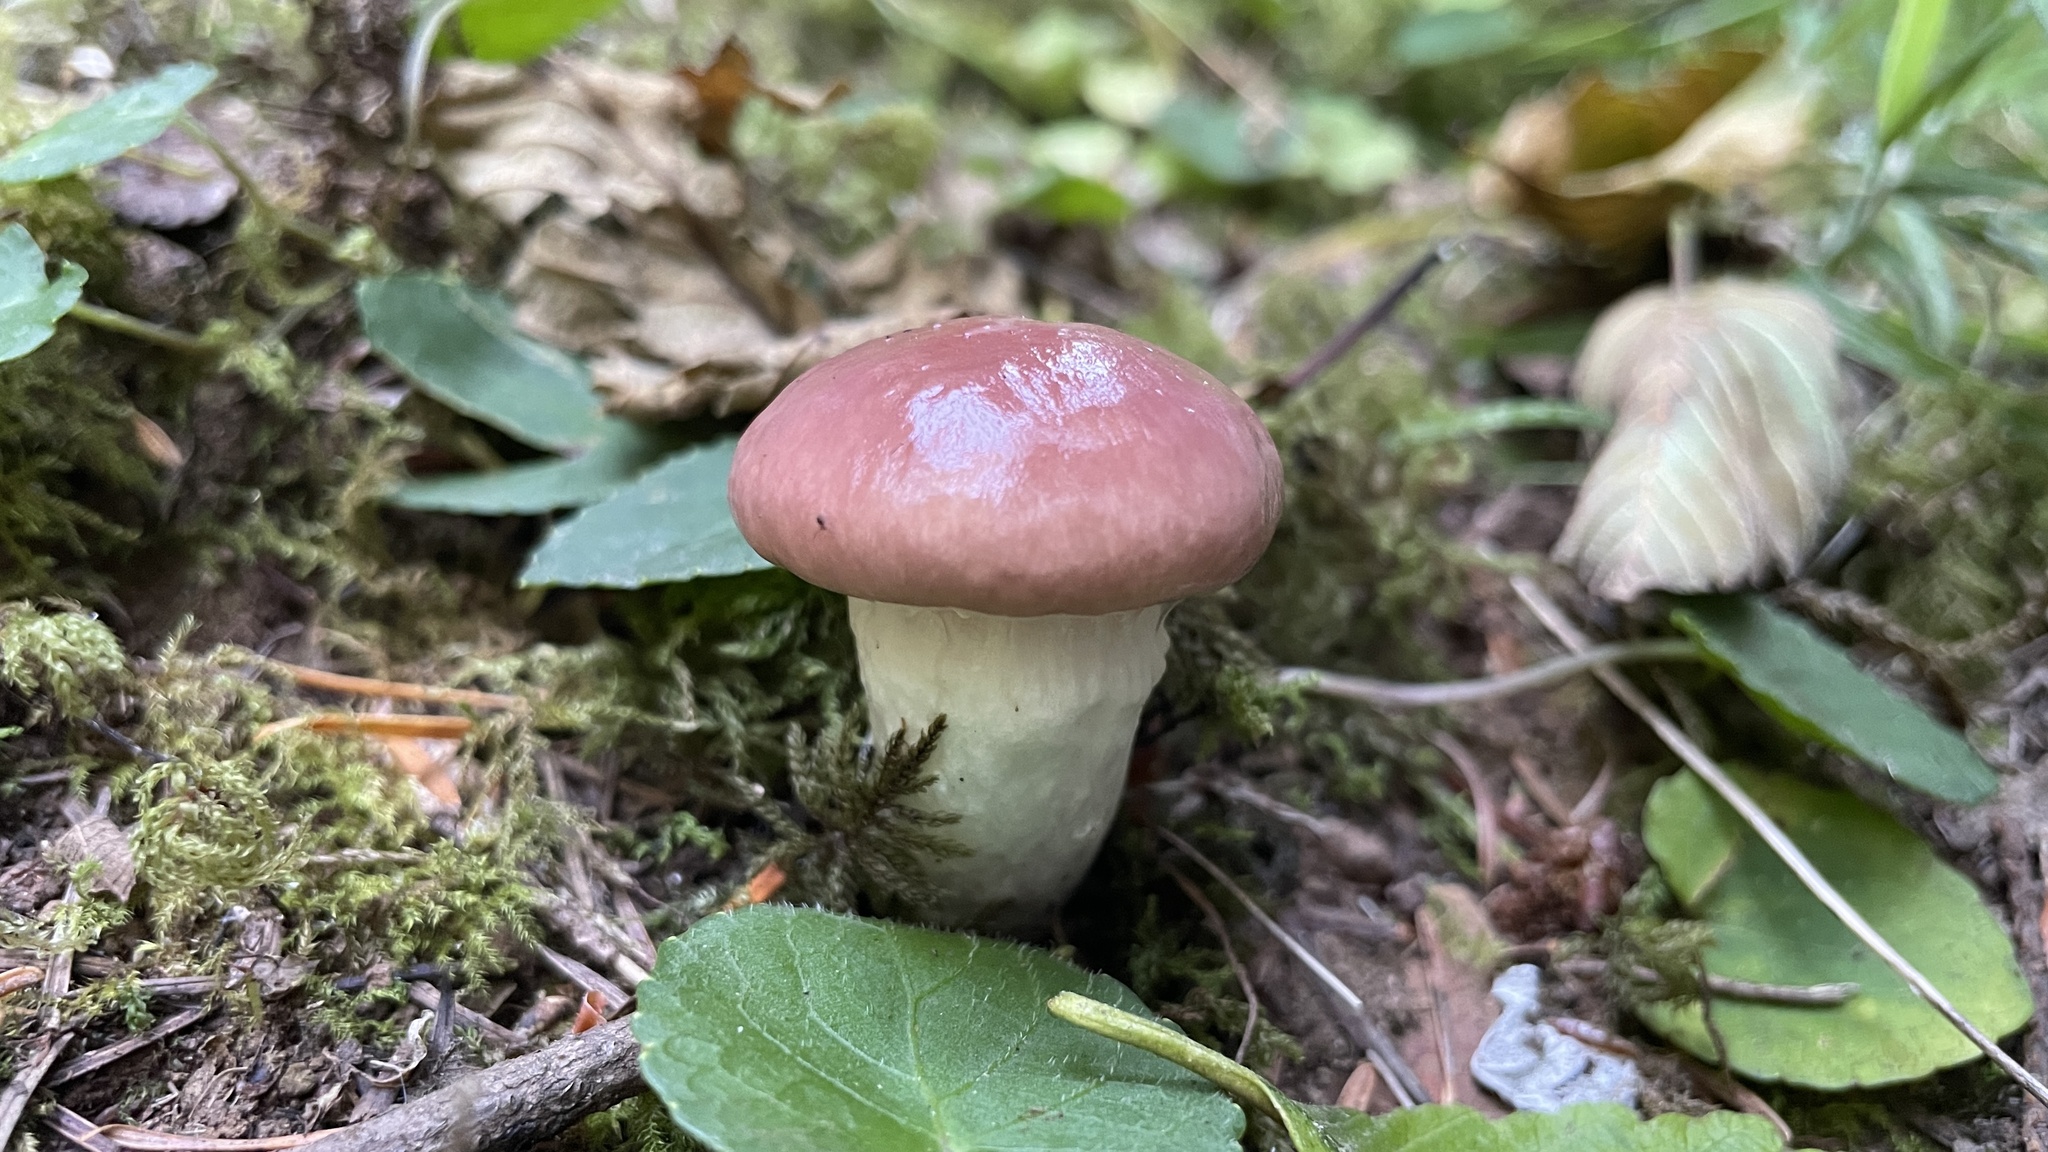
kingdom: Fungi
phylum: Basidiomycota
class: Agaricomycetes
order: Boletales
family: Gomphidiaceae
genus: Gomphidius
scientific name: Gomphidius subroseus
